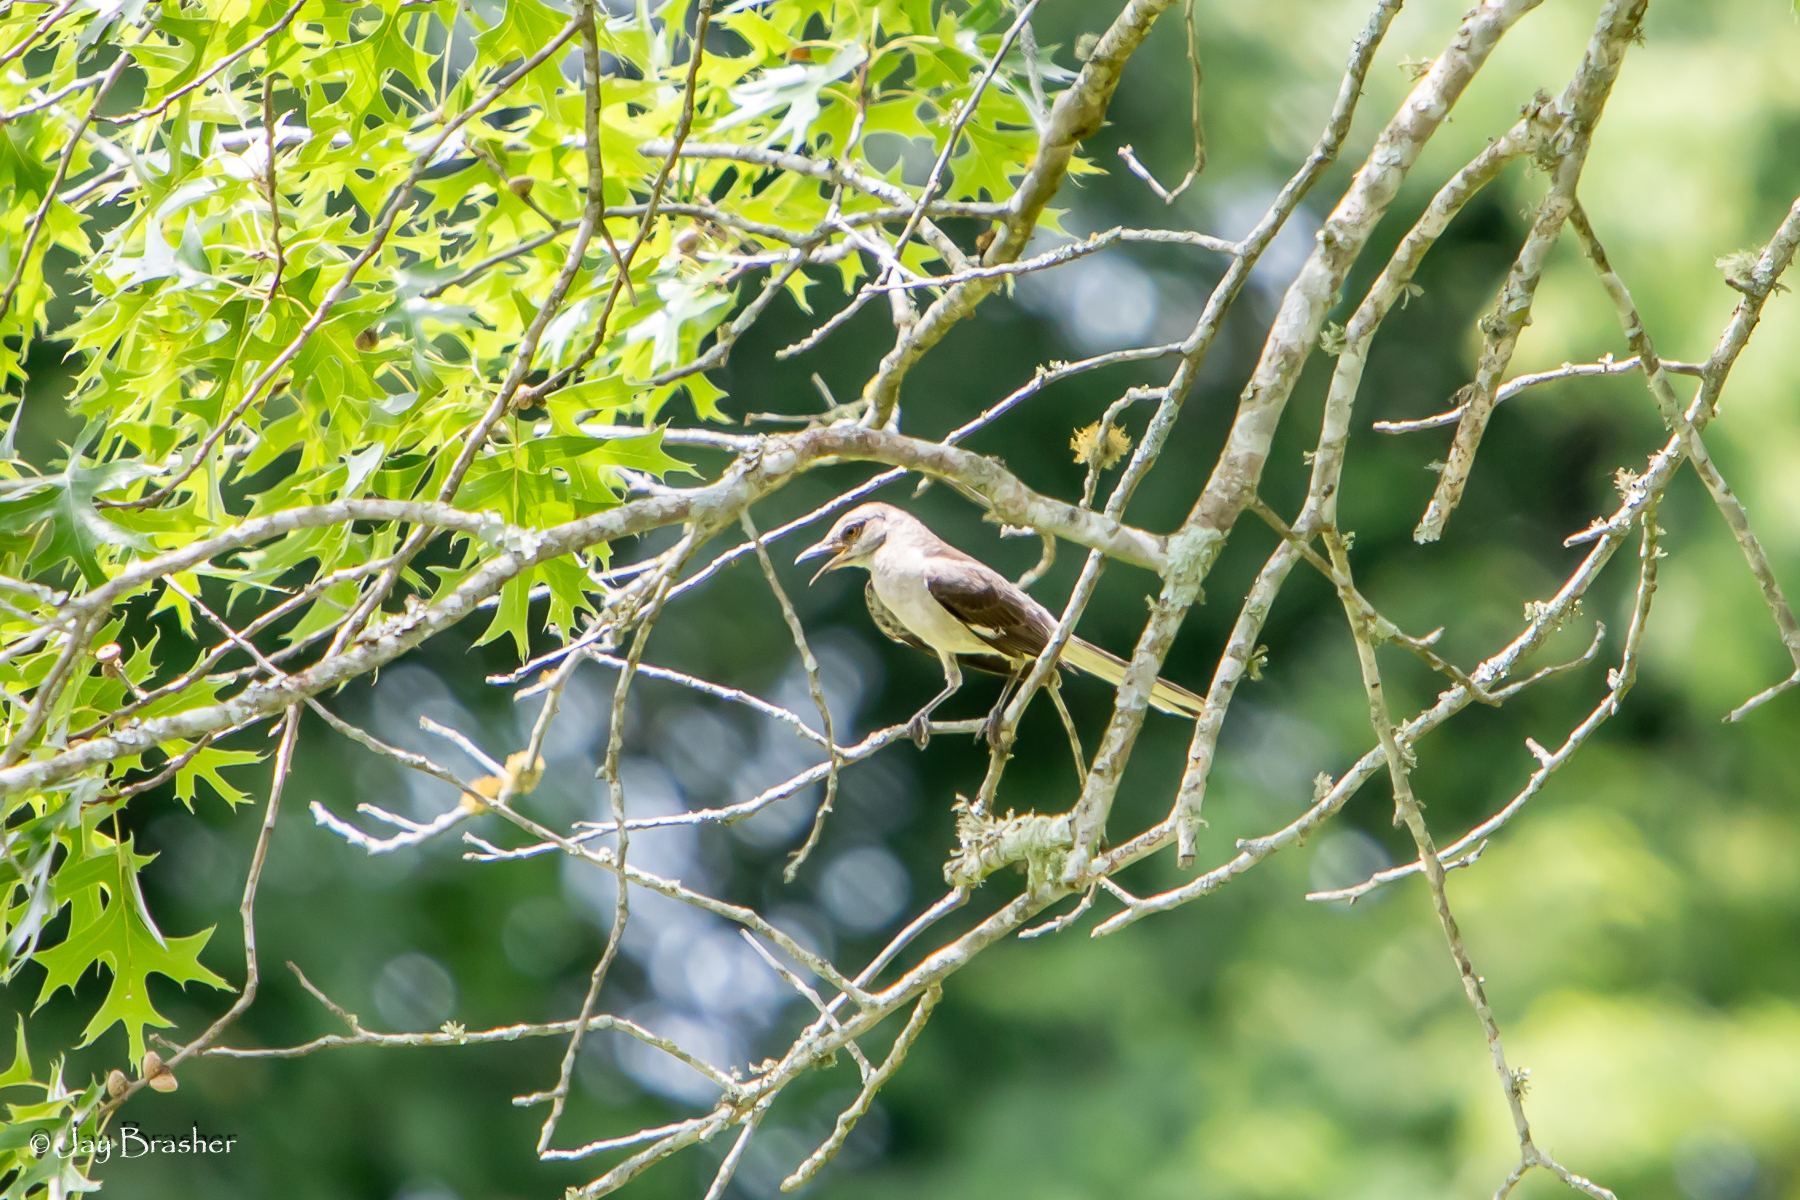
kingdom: Animalia
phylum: Chordata
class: Aves
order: Passeriformes
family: Mimidae
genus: Mimus
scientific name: Mimus polyglottos
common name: Northern mockingbird
